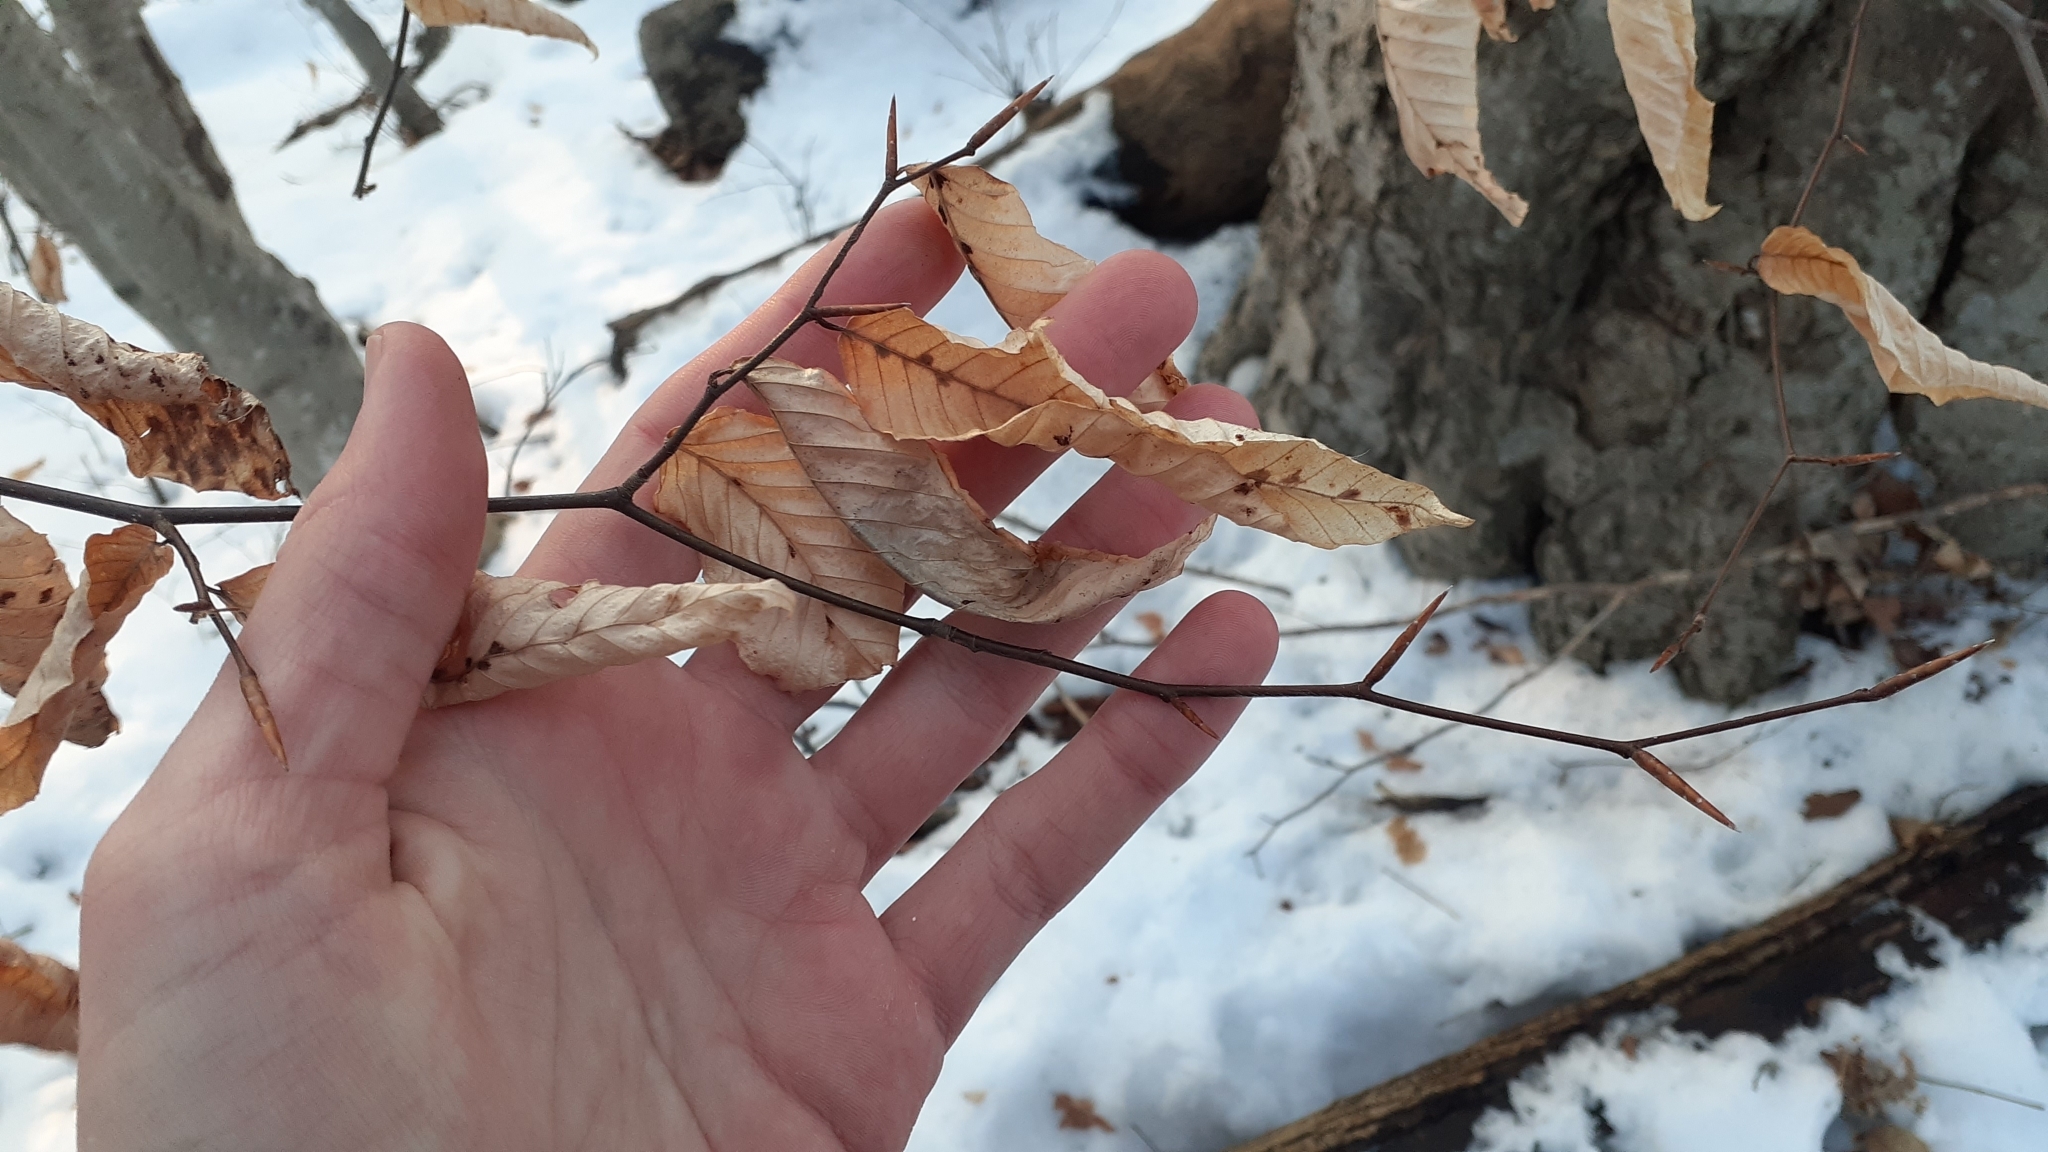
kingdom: Animalia
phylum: Arthropoda
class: Arachnida
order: Trombidiformes
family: Eriophyidae
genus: Acalitus
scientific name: Acalitus
